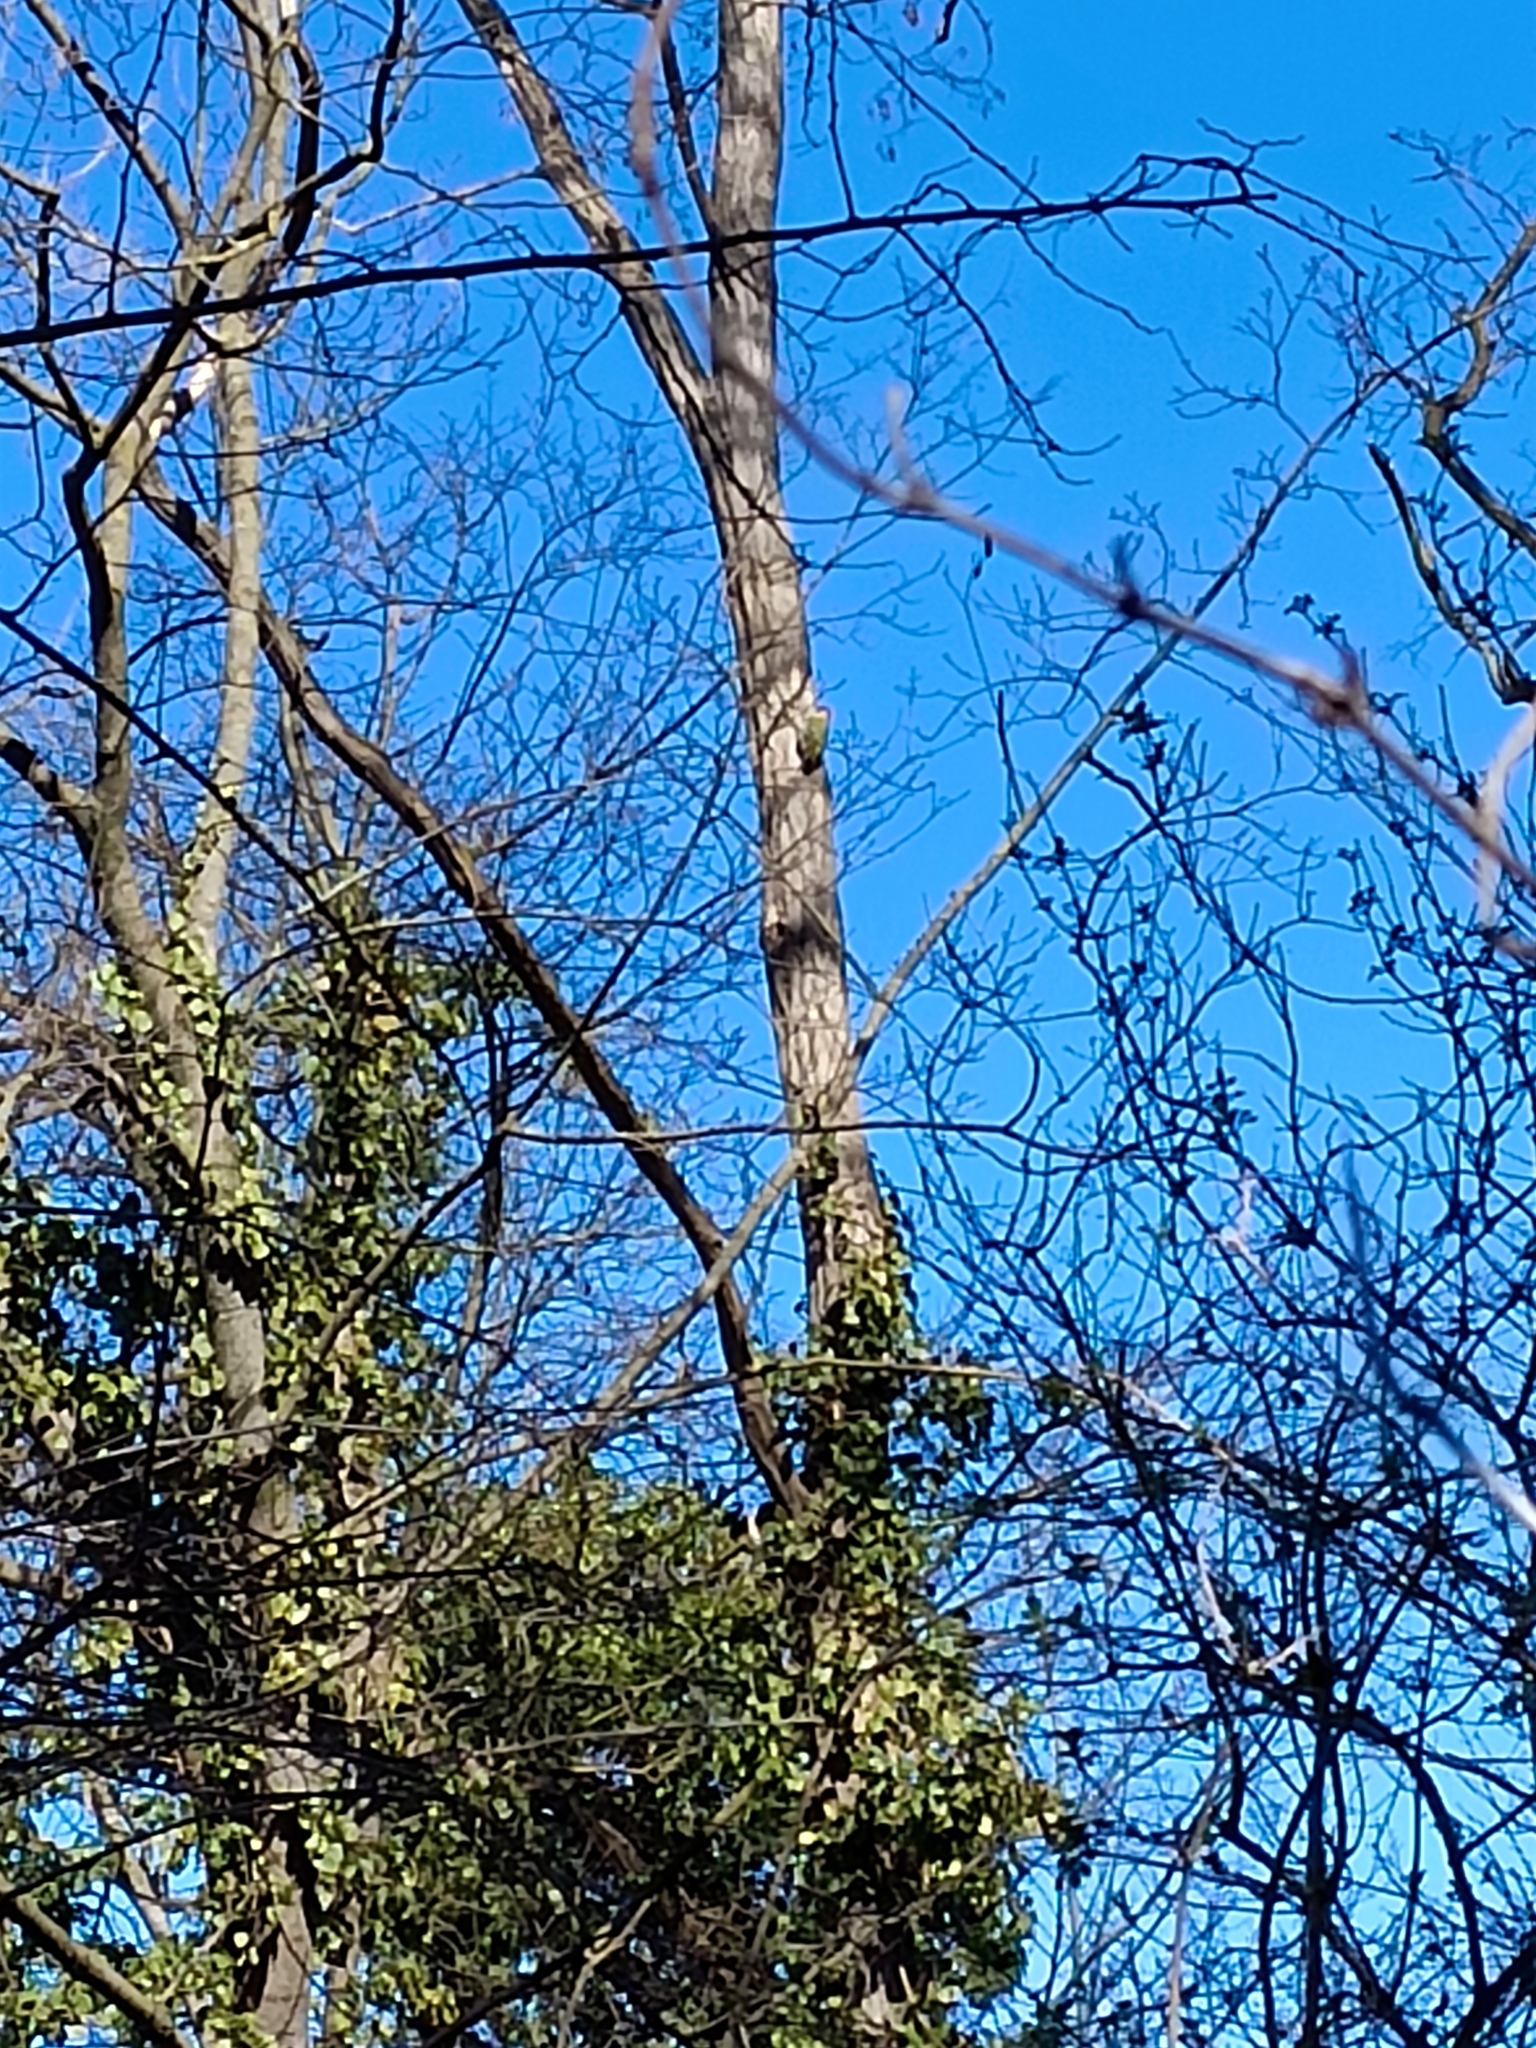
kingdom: Animalia
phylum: Chordata
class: Aves
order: Piciformes
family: Picidae
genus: Picus
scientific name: Picus viridis
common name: European green woodpecker
